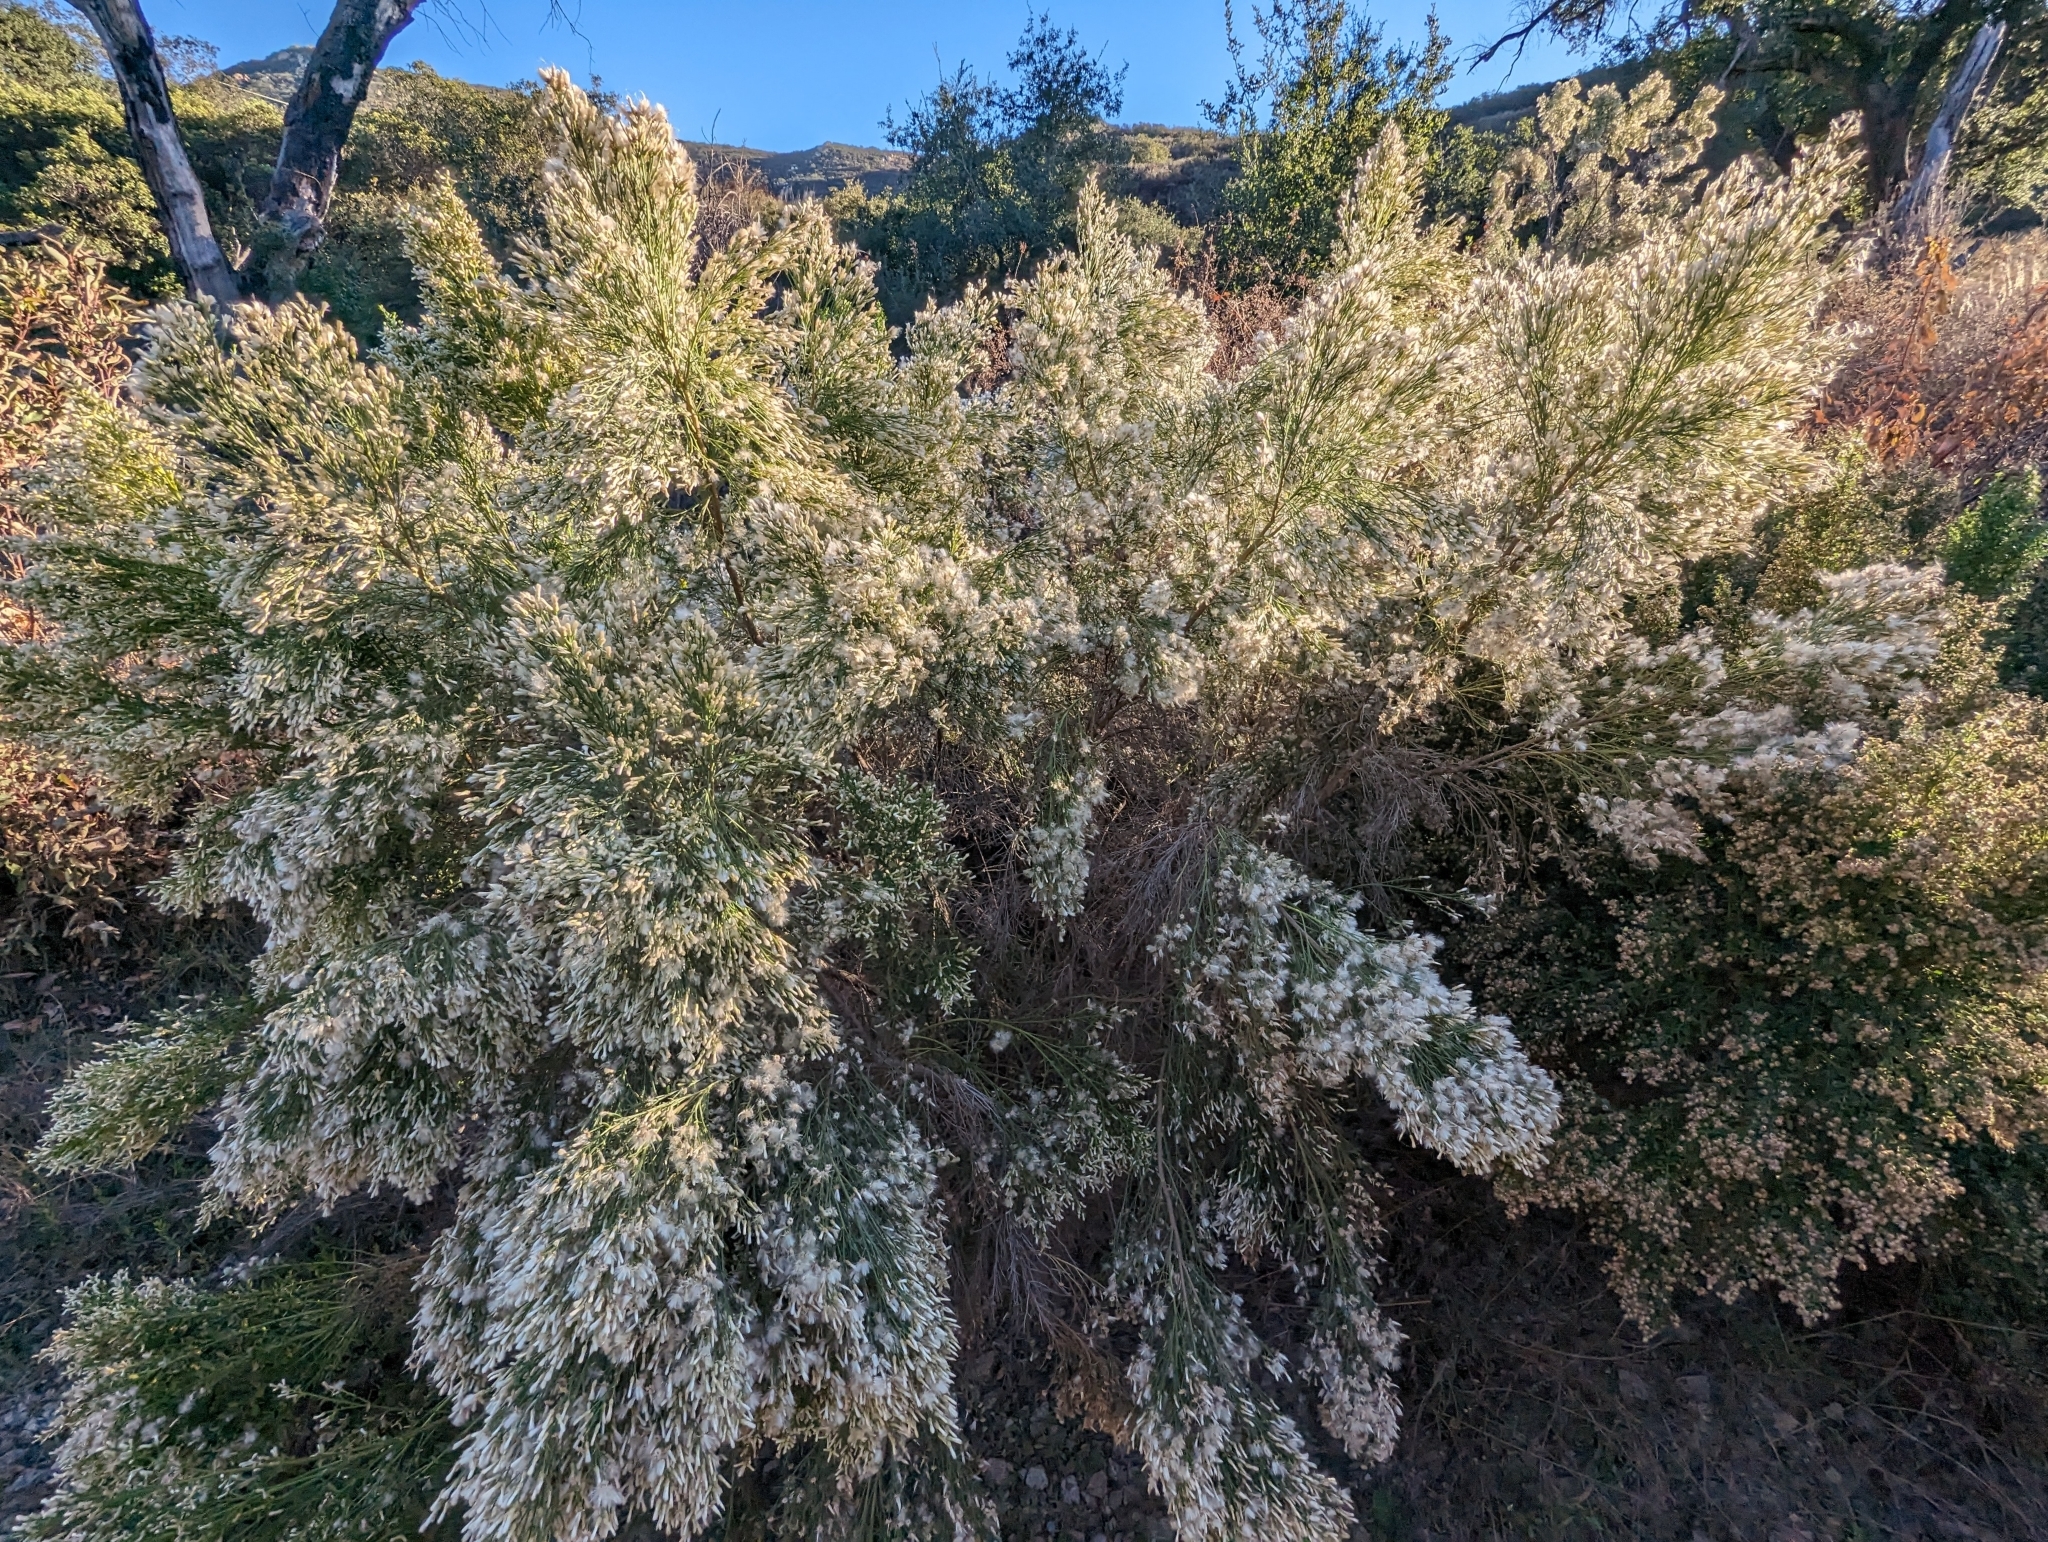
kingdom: Plantae
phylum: Tracheophyta
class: Magnoliopsida
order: Asterales
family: Asteraceae
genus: Baccharis
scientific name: Baccharis sarothroides
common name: Desert-broom
